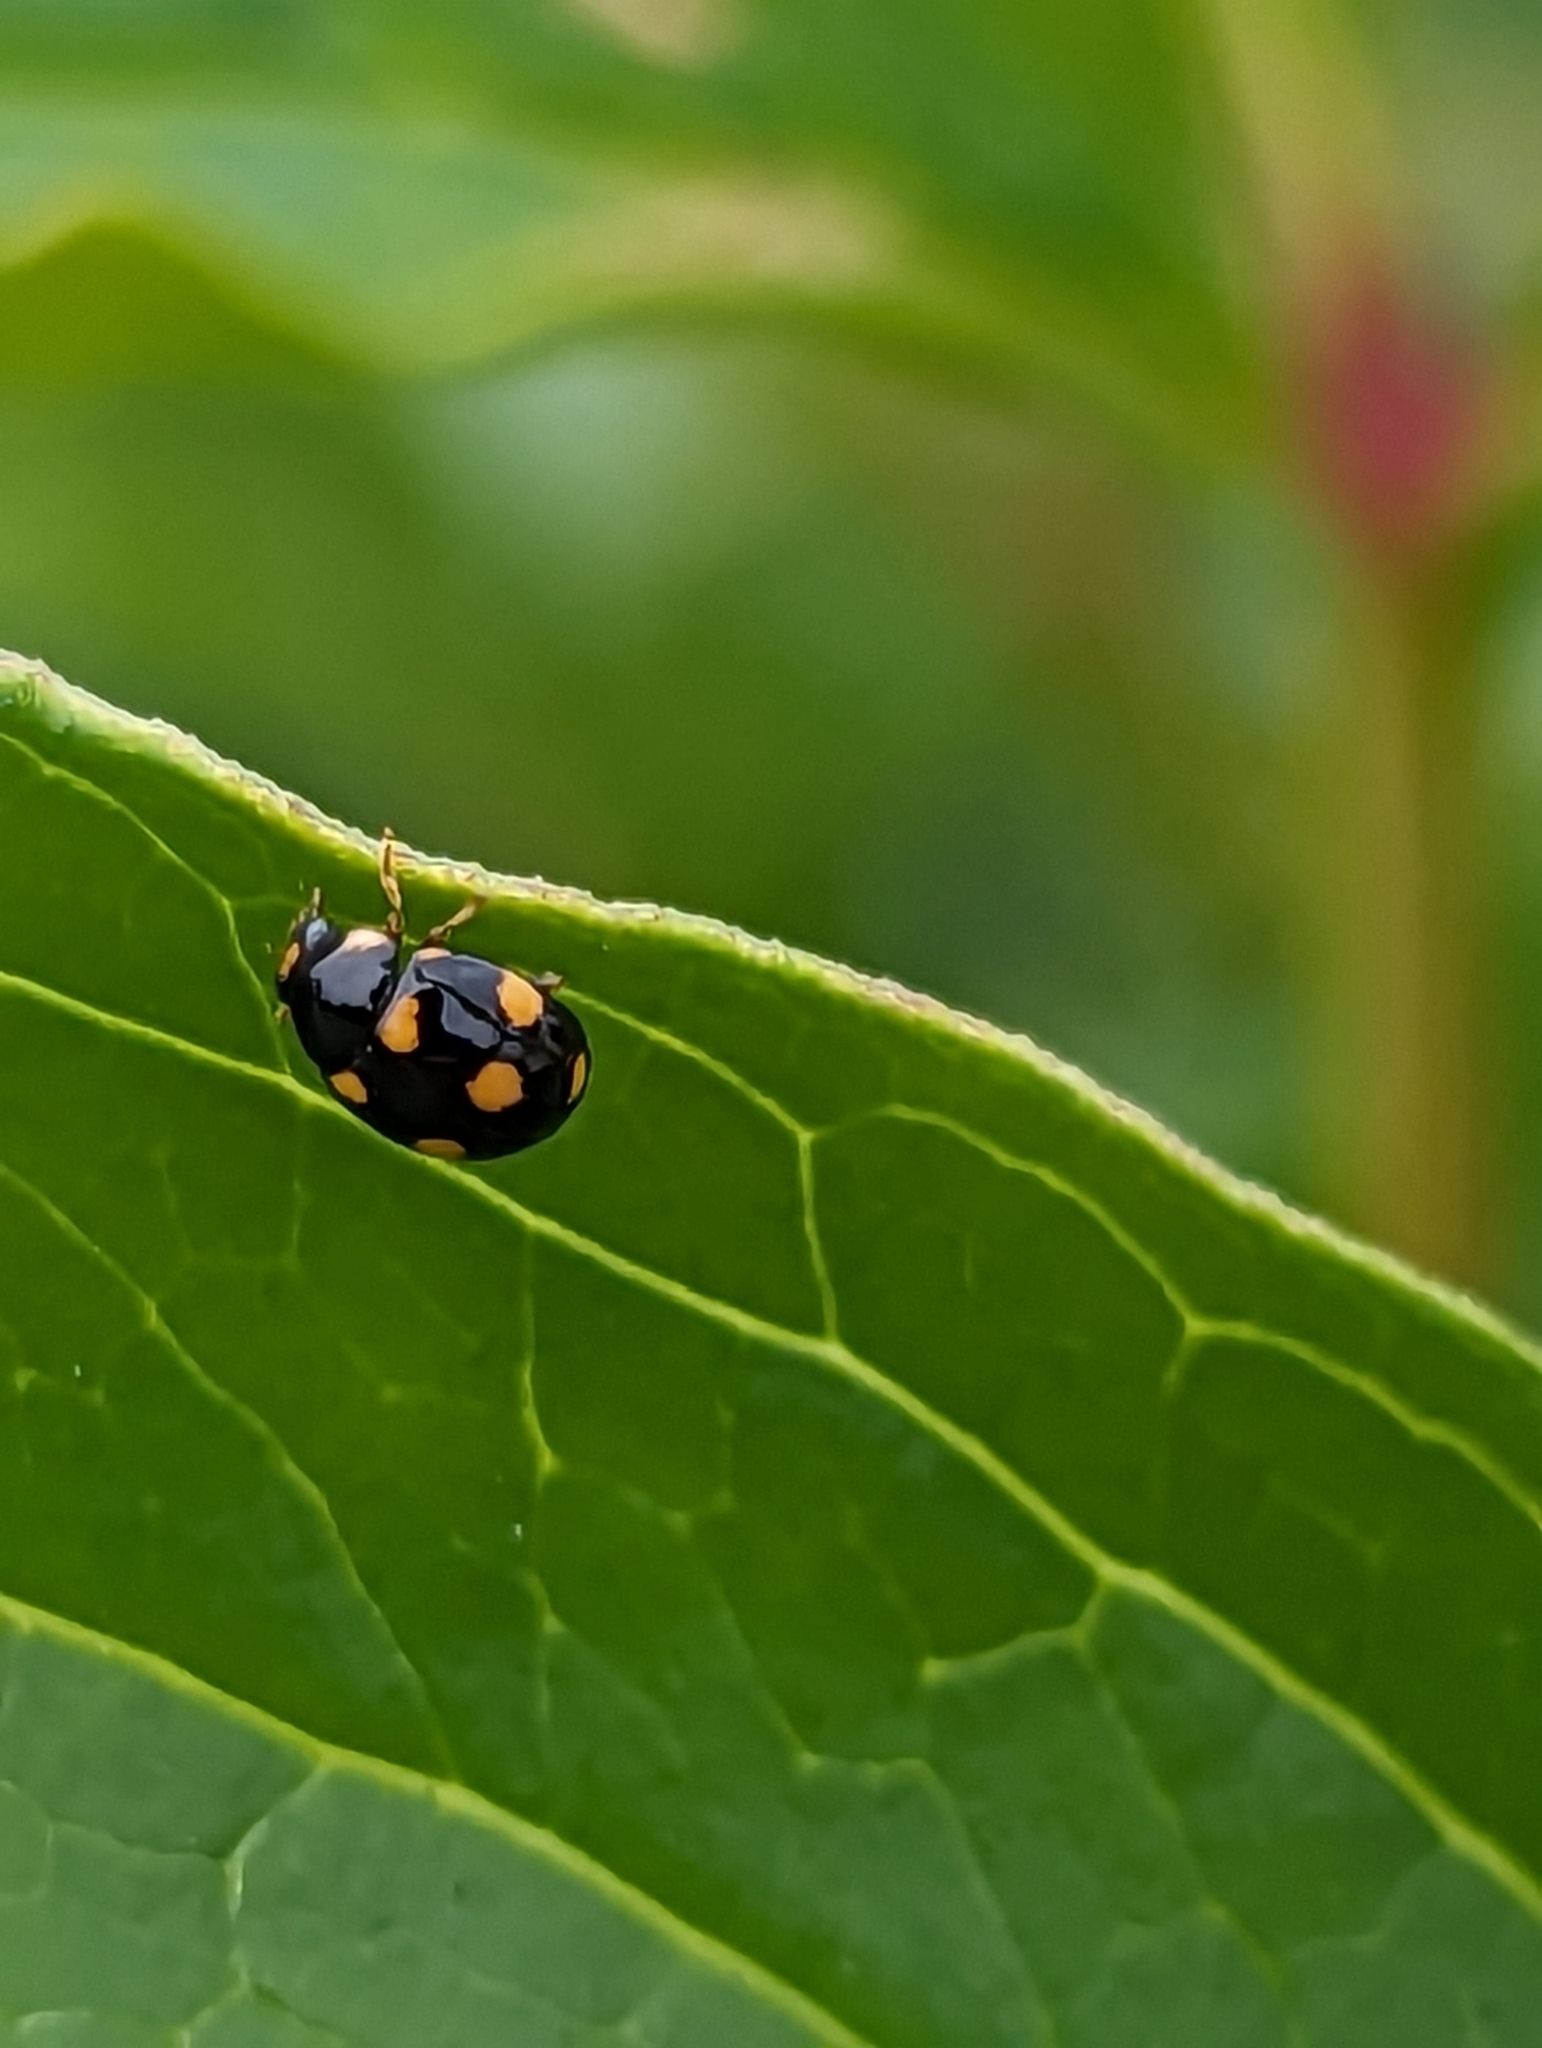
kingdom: Animalia
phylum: Arthropoda
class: Insecta
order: Coleoptera
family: Coccinellidae
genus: Brachiacantha
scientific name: Brachiacantha ursina
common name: Ursine spurleg lady beetle
